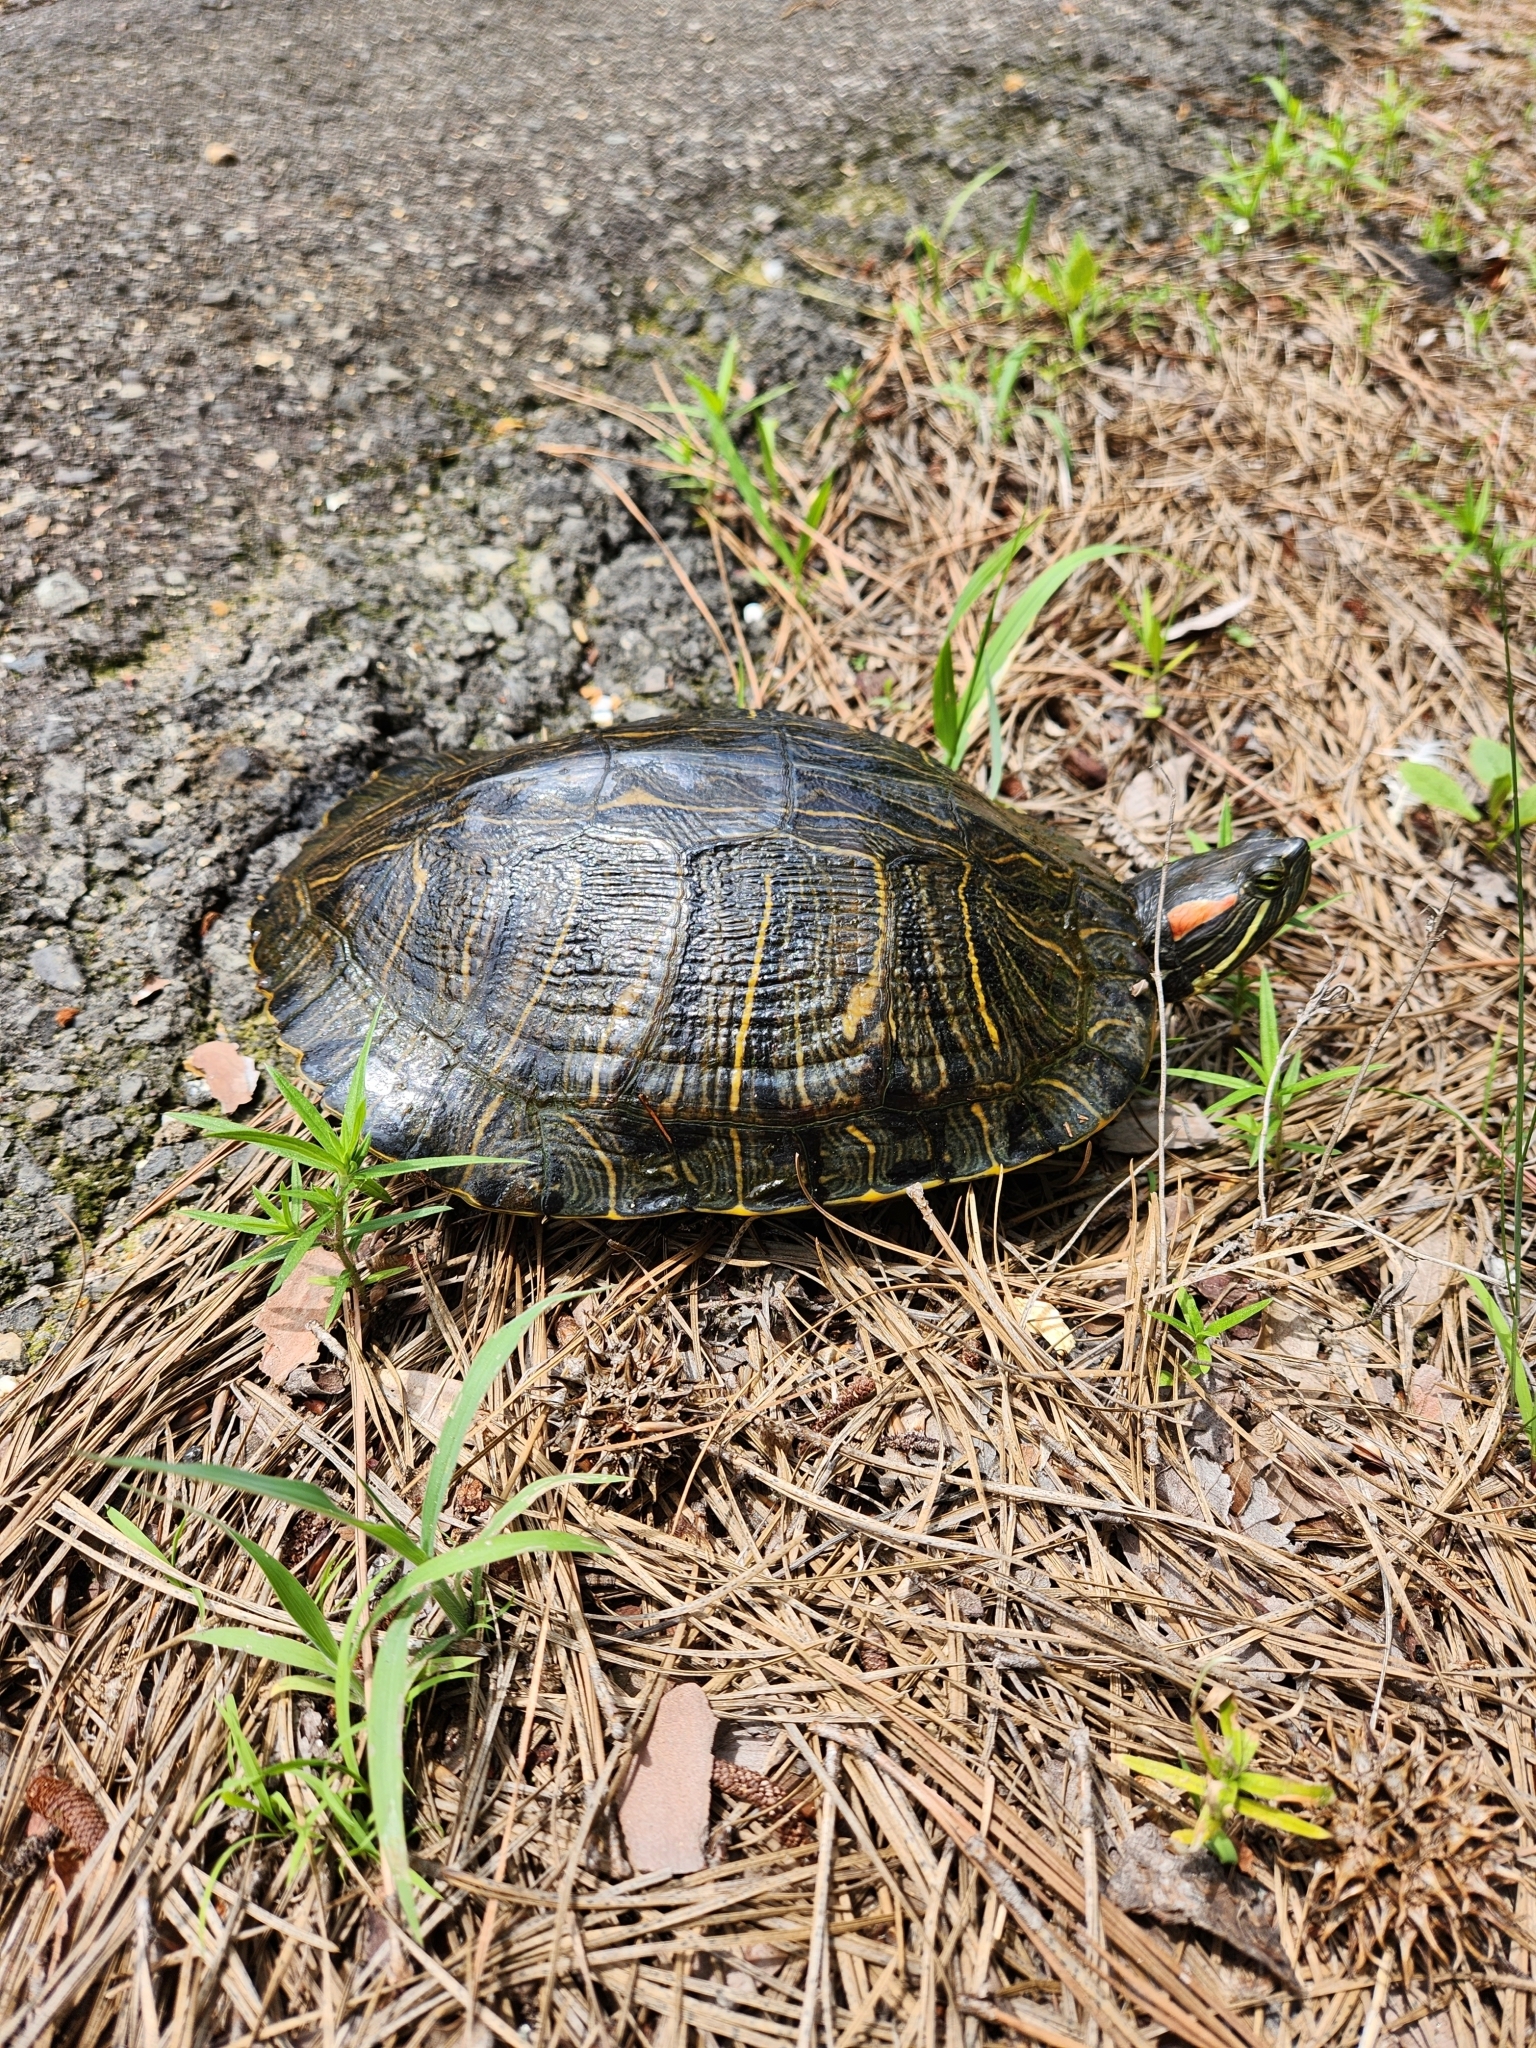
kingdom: Animalia
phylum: Chordata
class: Testudines
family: Emydidae
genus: Trachemys
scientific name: Trachemys scripta
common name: Slider
